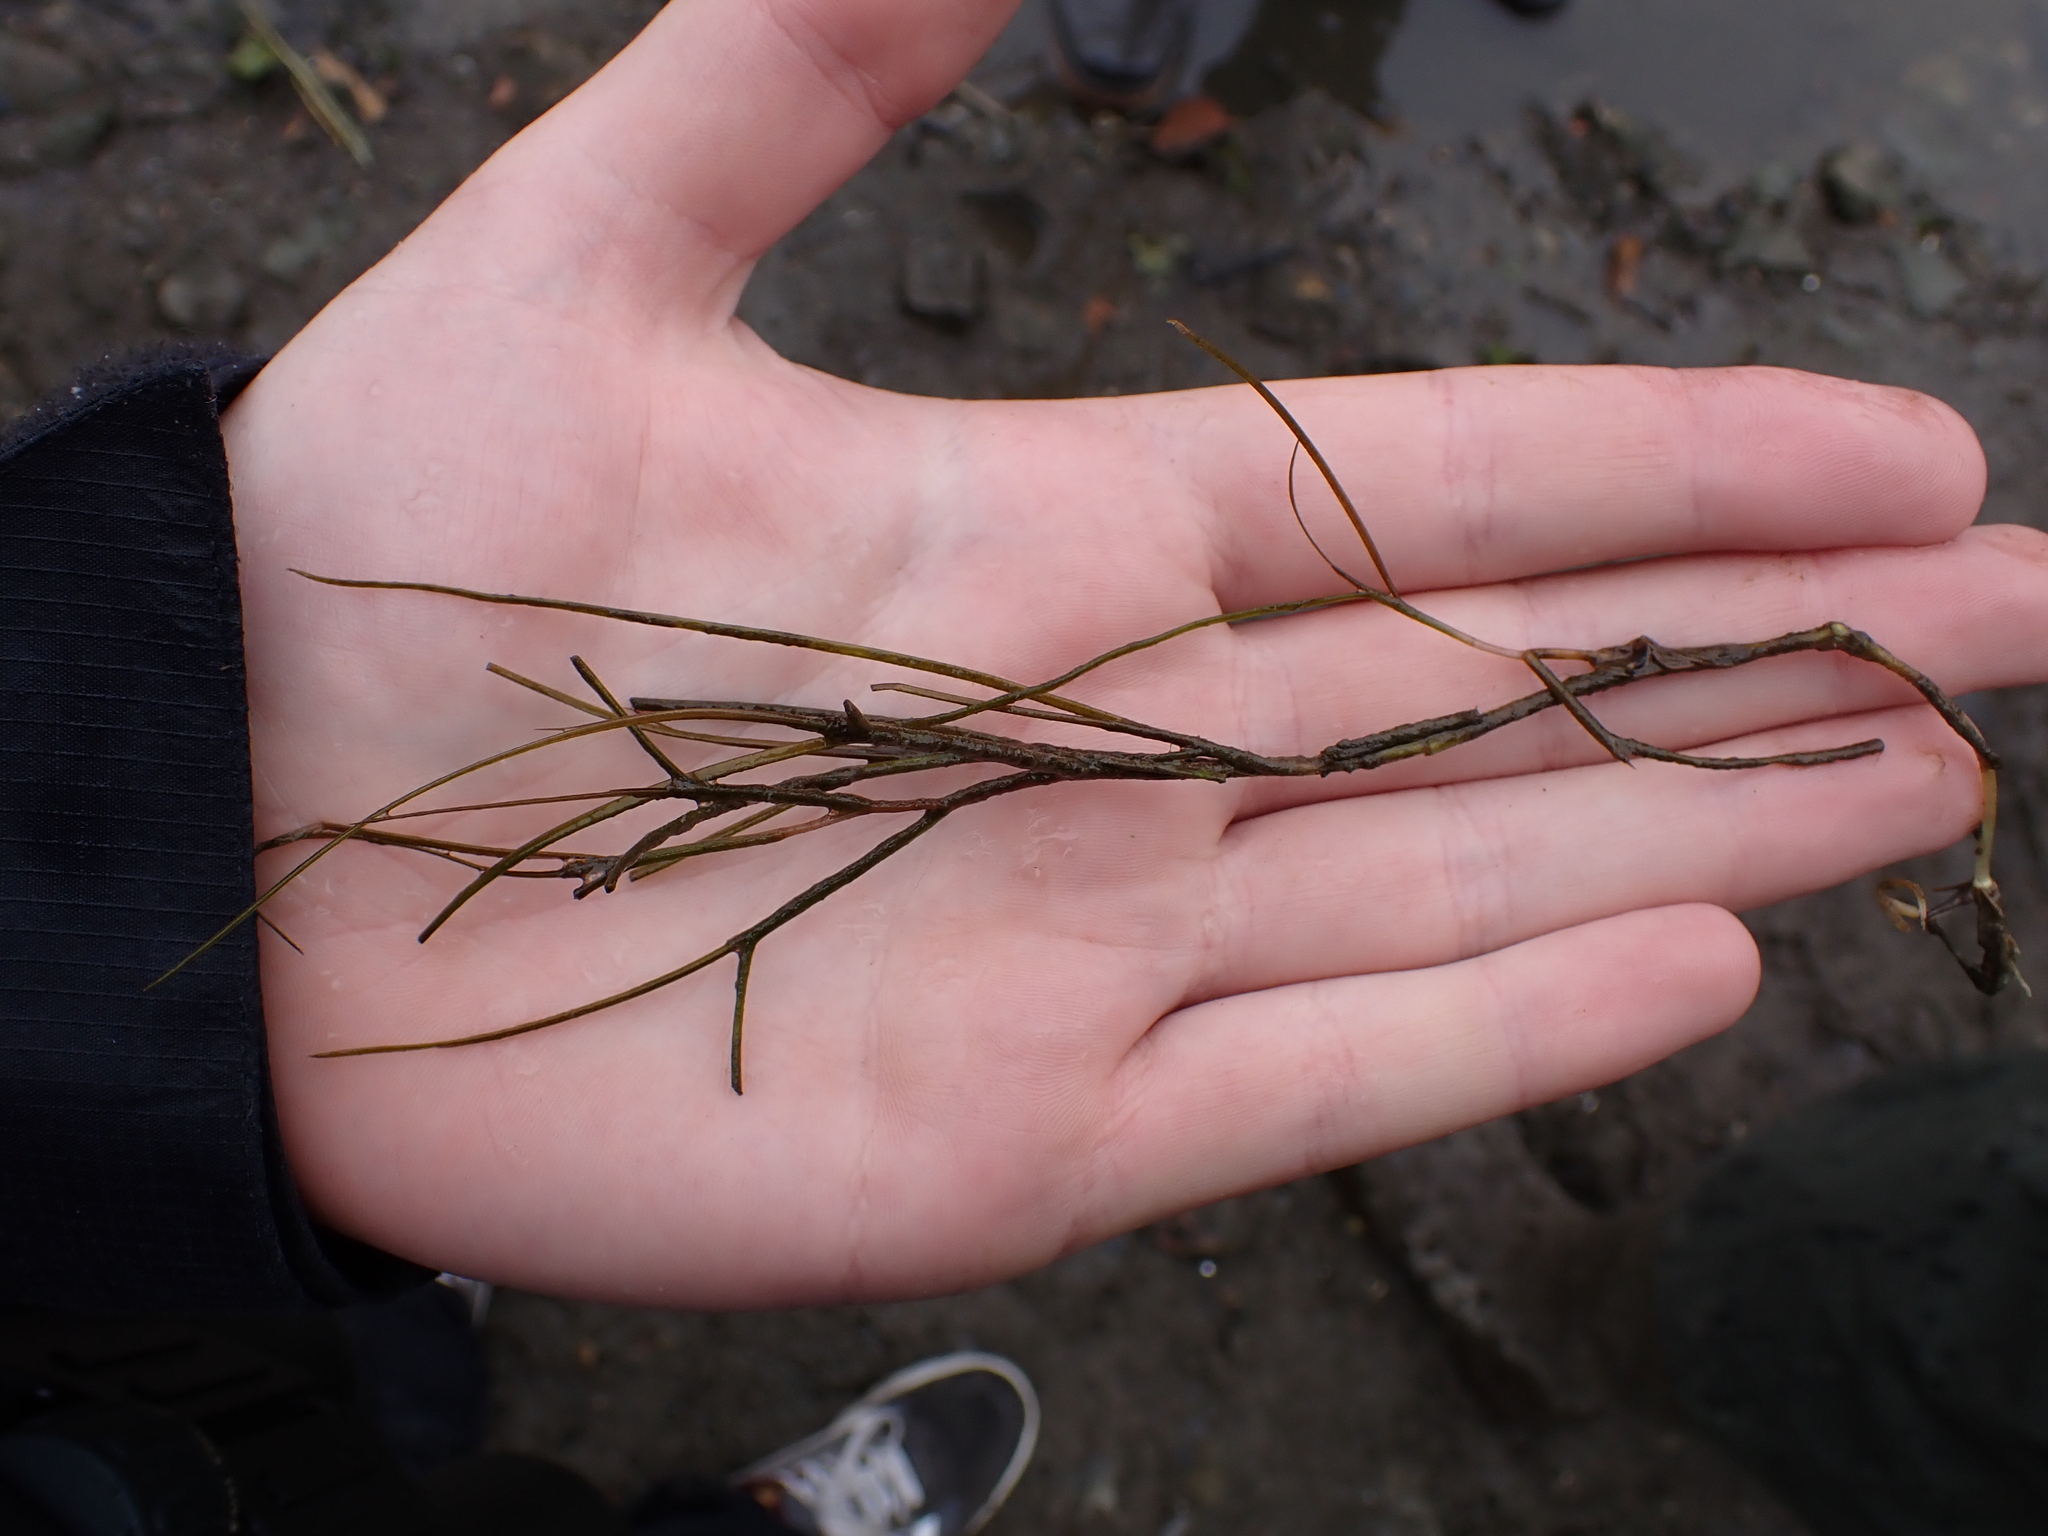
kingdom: Plantae
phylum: Tracheophyta
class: Liliopsida
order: Alismatales
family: Potamogetonaceae
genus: Stuckenia
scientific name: Stuckenia pectinata
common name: Sago pondweed
